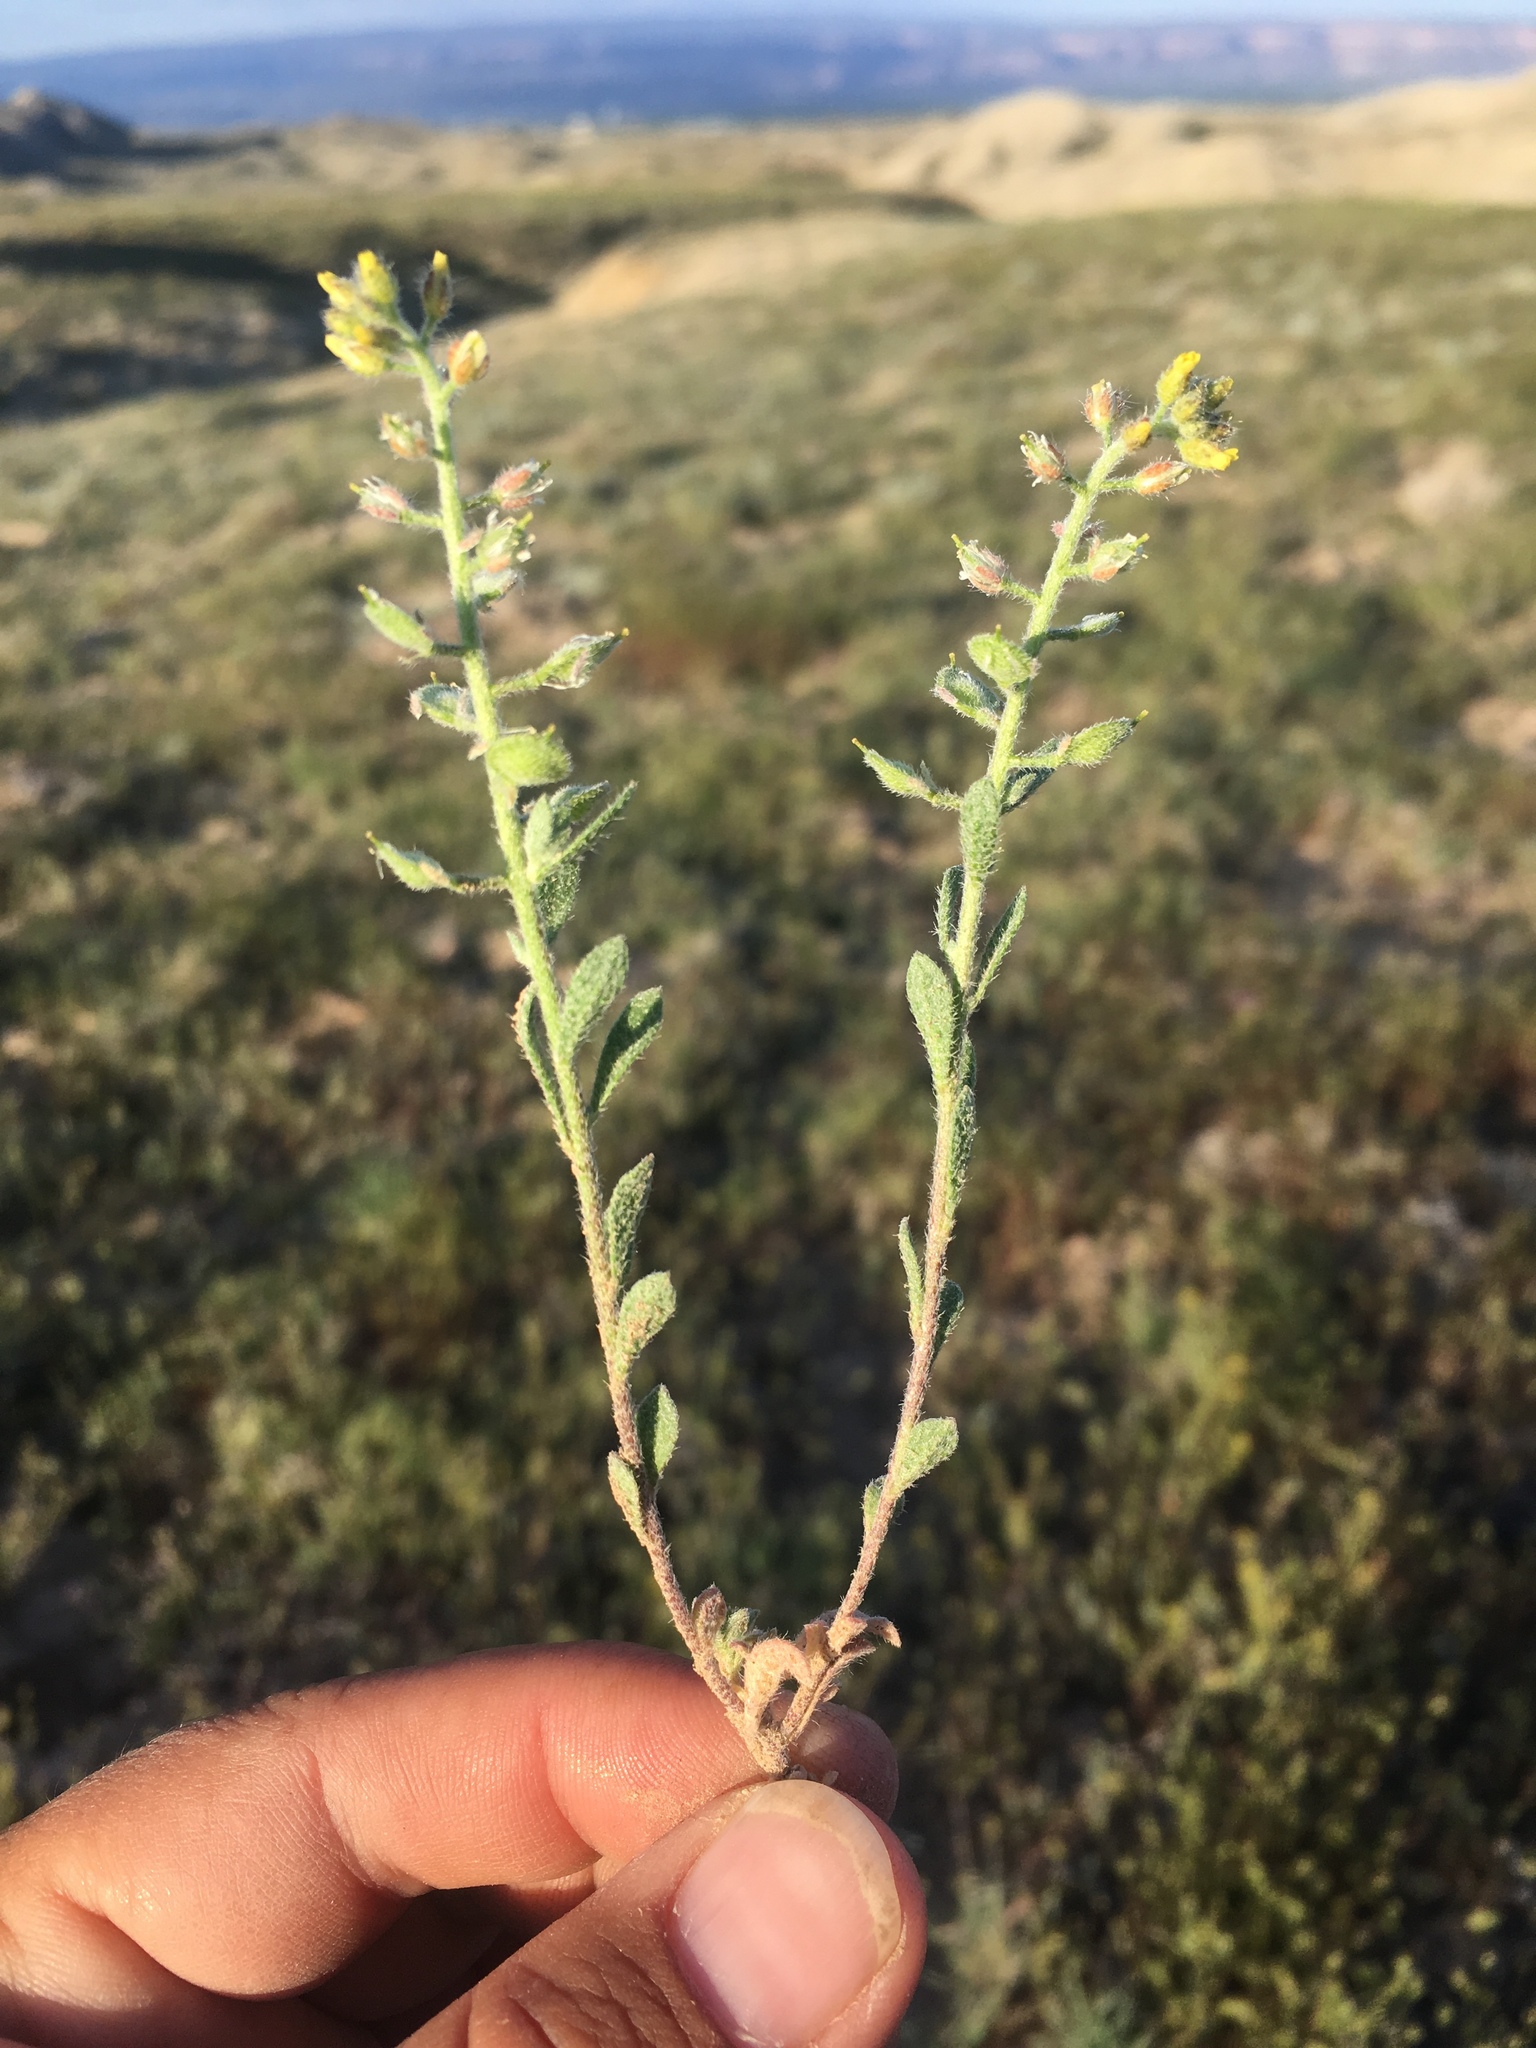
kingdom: Plantae
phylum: Tracheophyta
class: Magnoliopsida
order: Brassicales
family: Brassicaceae
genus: Alyssum
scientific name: Alyssum simplex
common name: Alyssum
